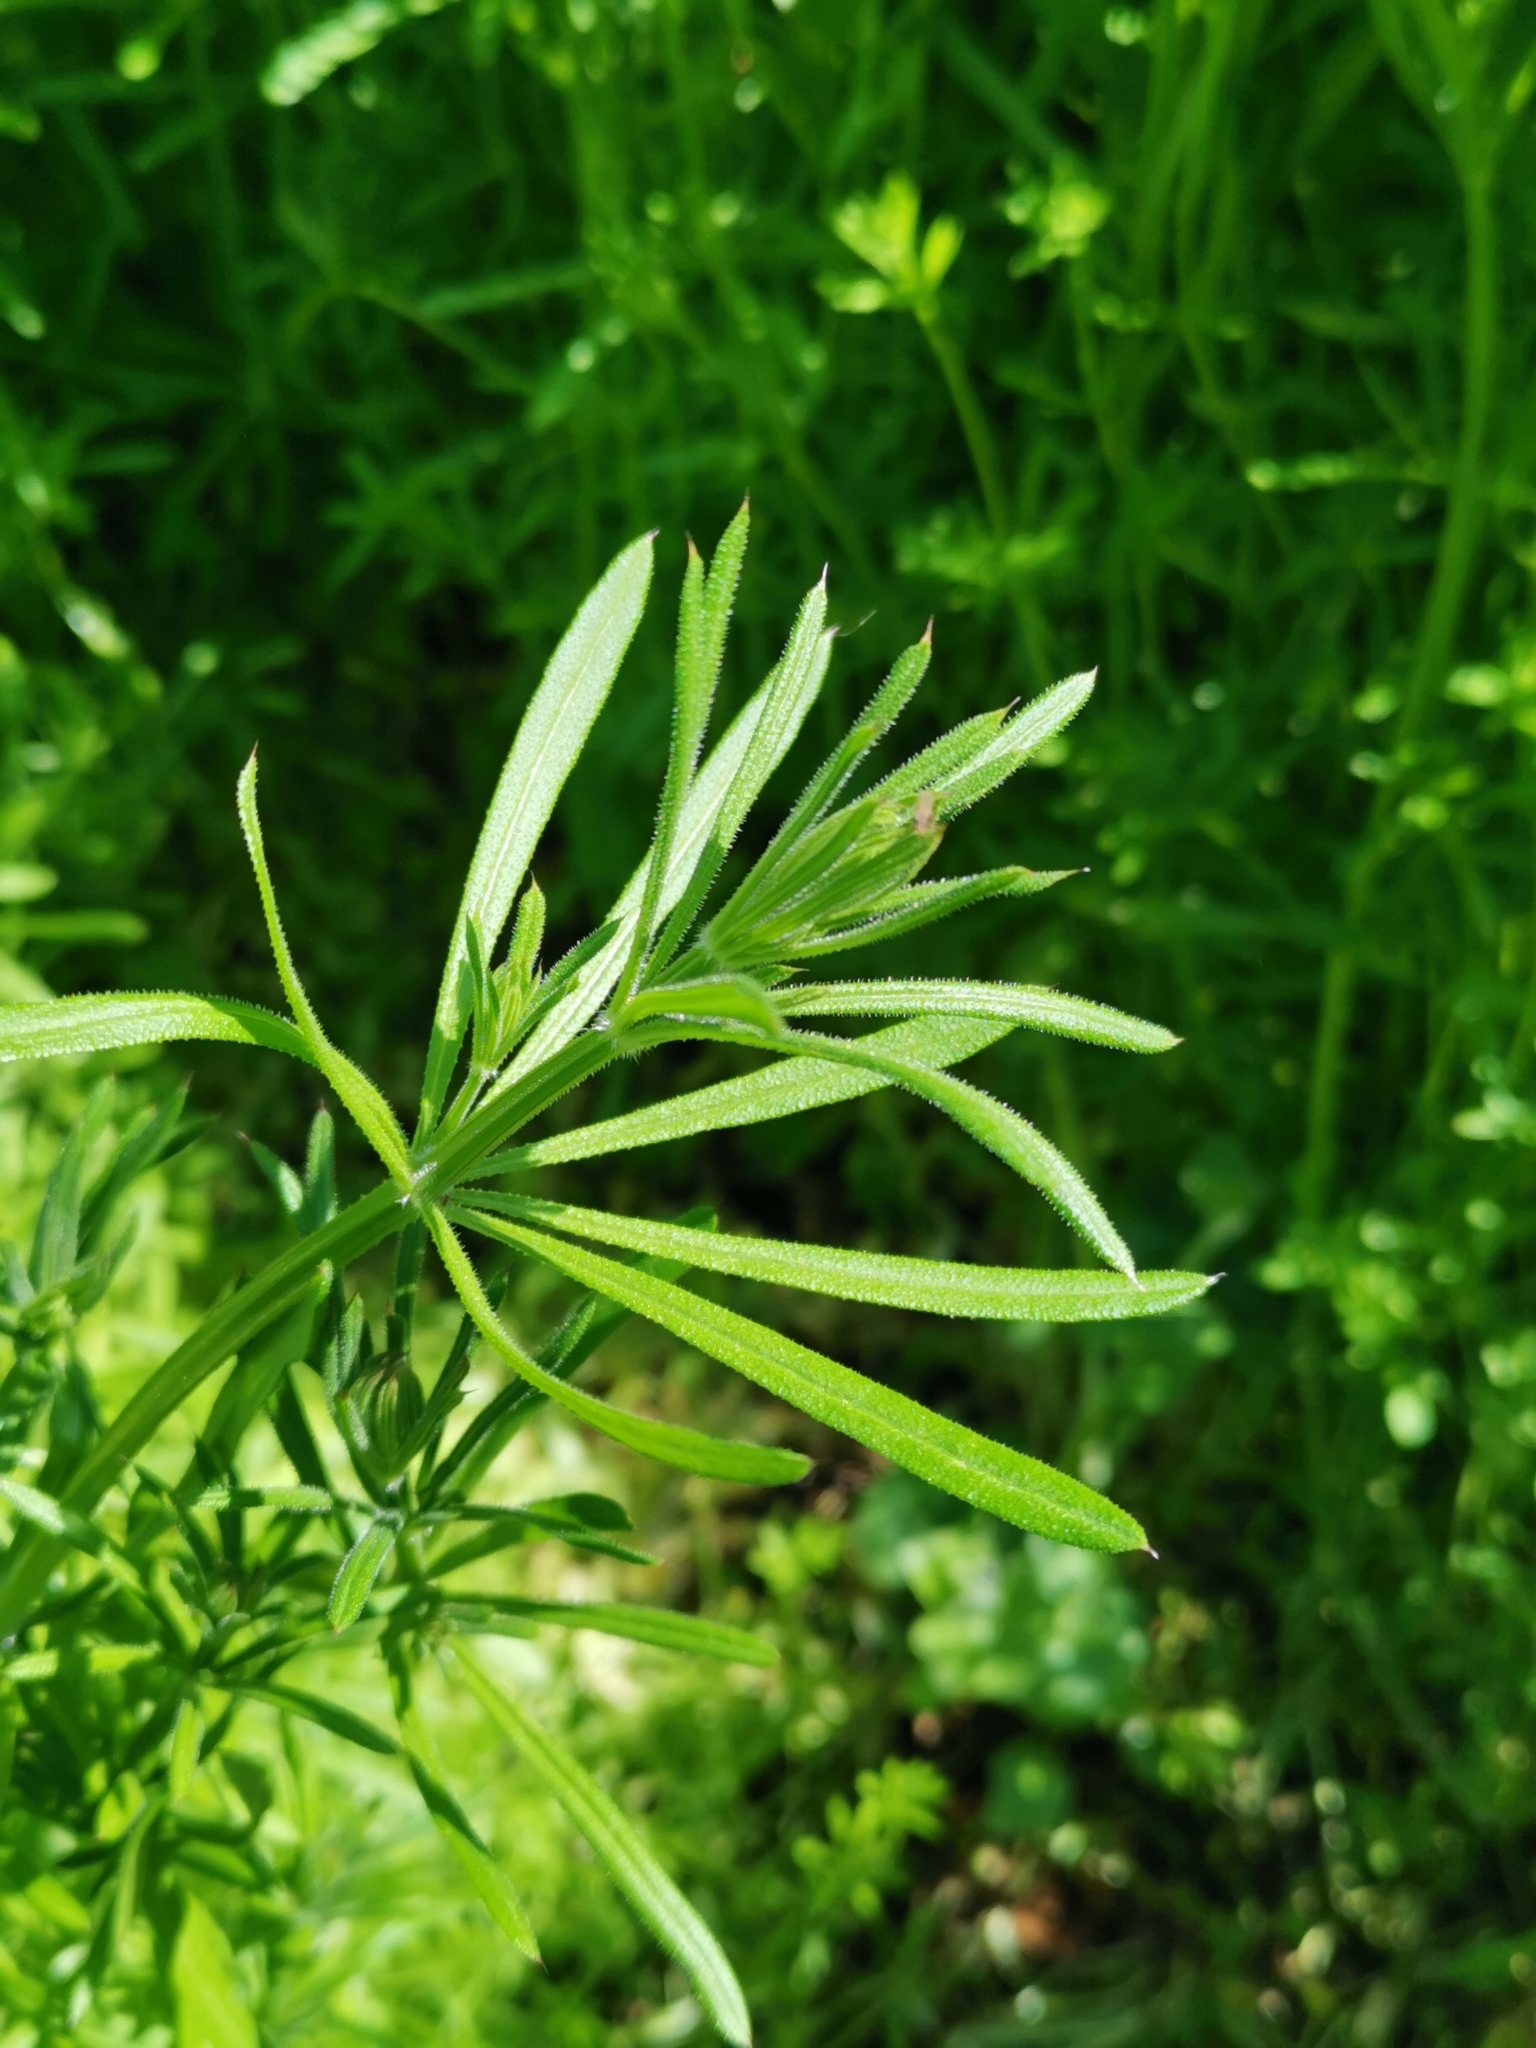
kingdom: Plantae
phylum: Tracheophyta
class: Magnoliopsida
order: Gentianales
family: Rubiaceae
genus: Galium
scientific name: Galium aparine
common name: Cleavers
